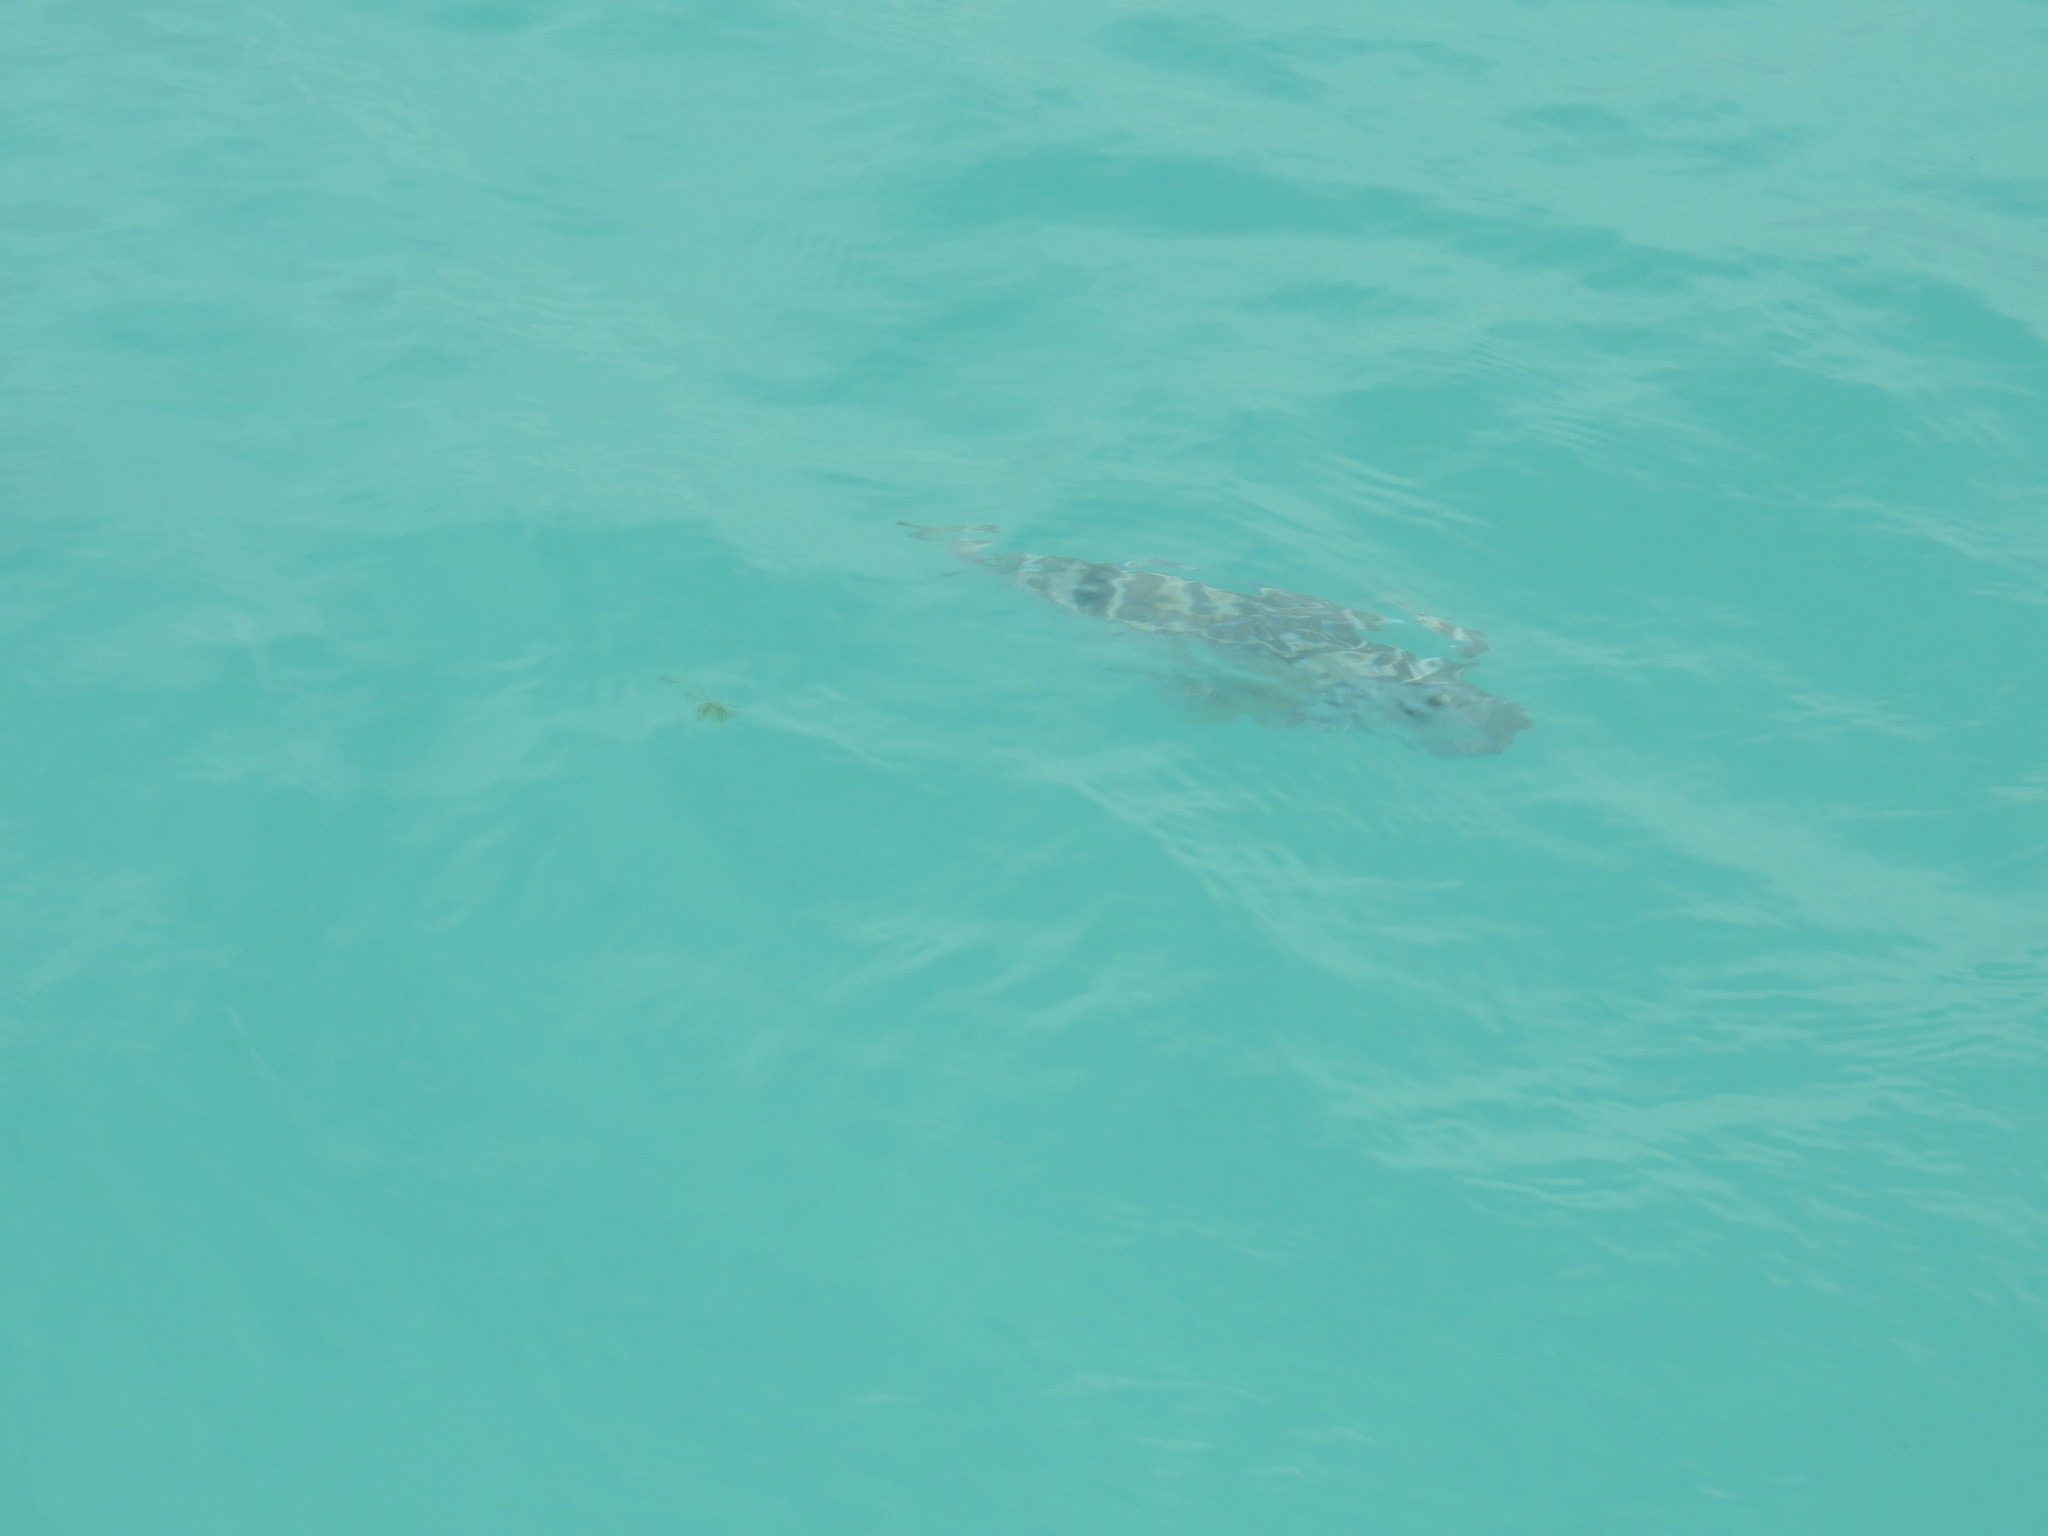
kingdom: Animalia
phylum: Chordata
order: Tetraodontiformes
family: Tetraodontidae
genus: Sphoeroides
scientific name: Sphoeroides annulatus
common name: Bullseye puffer
